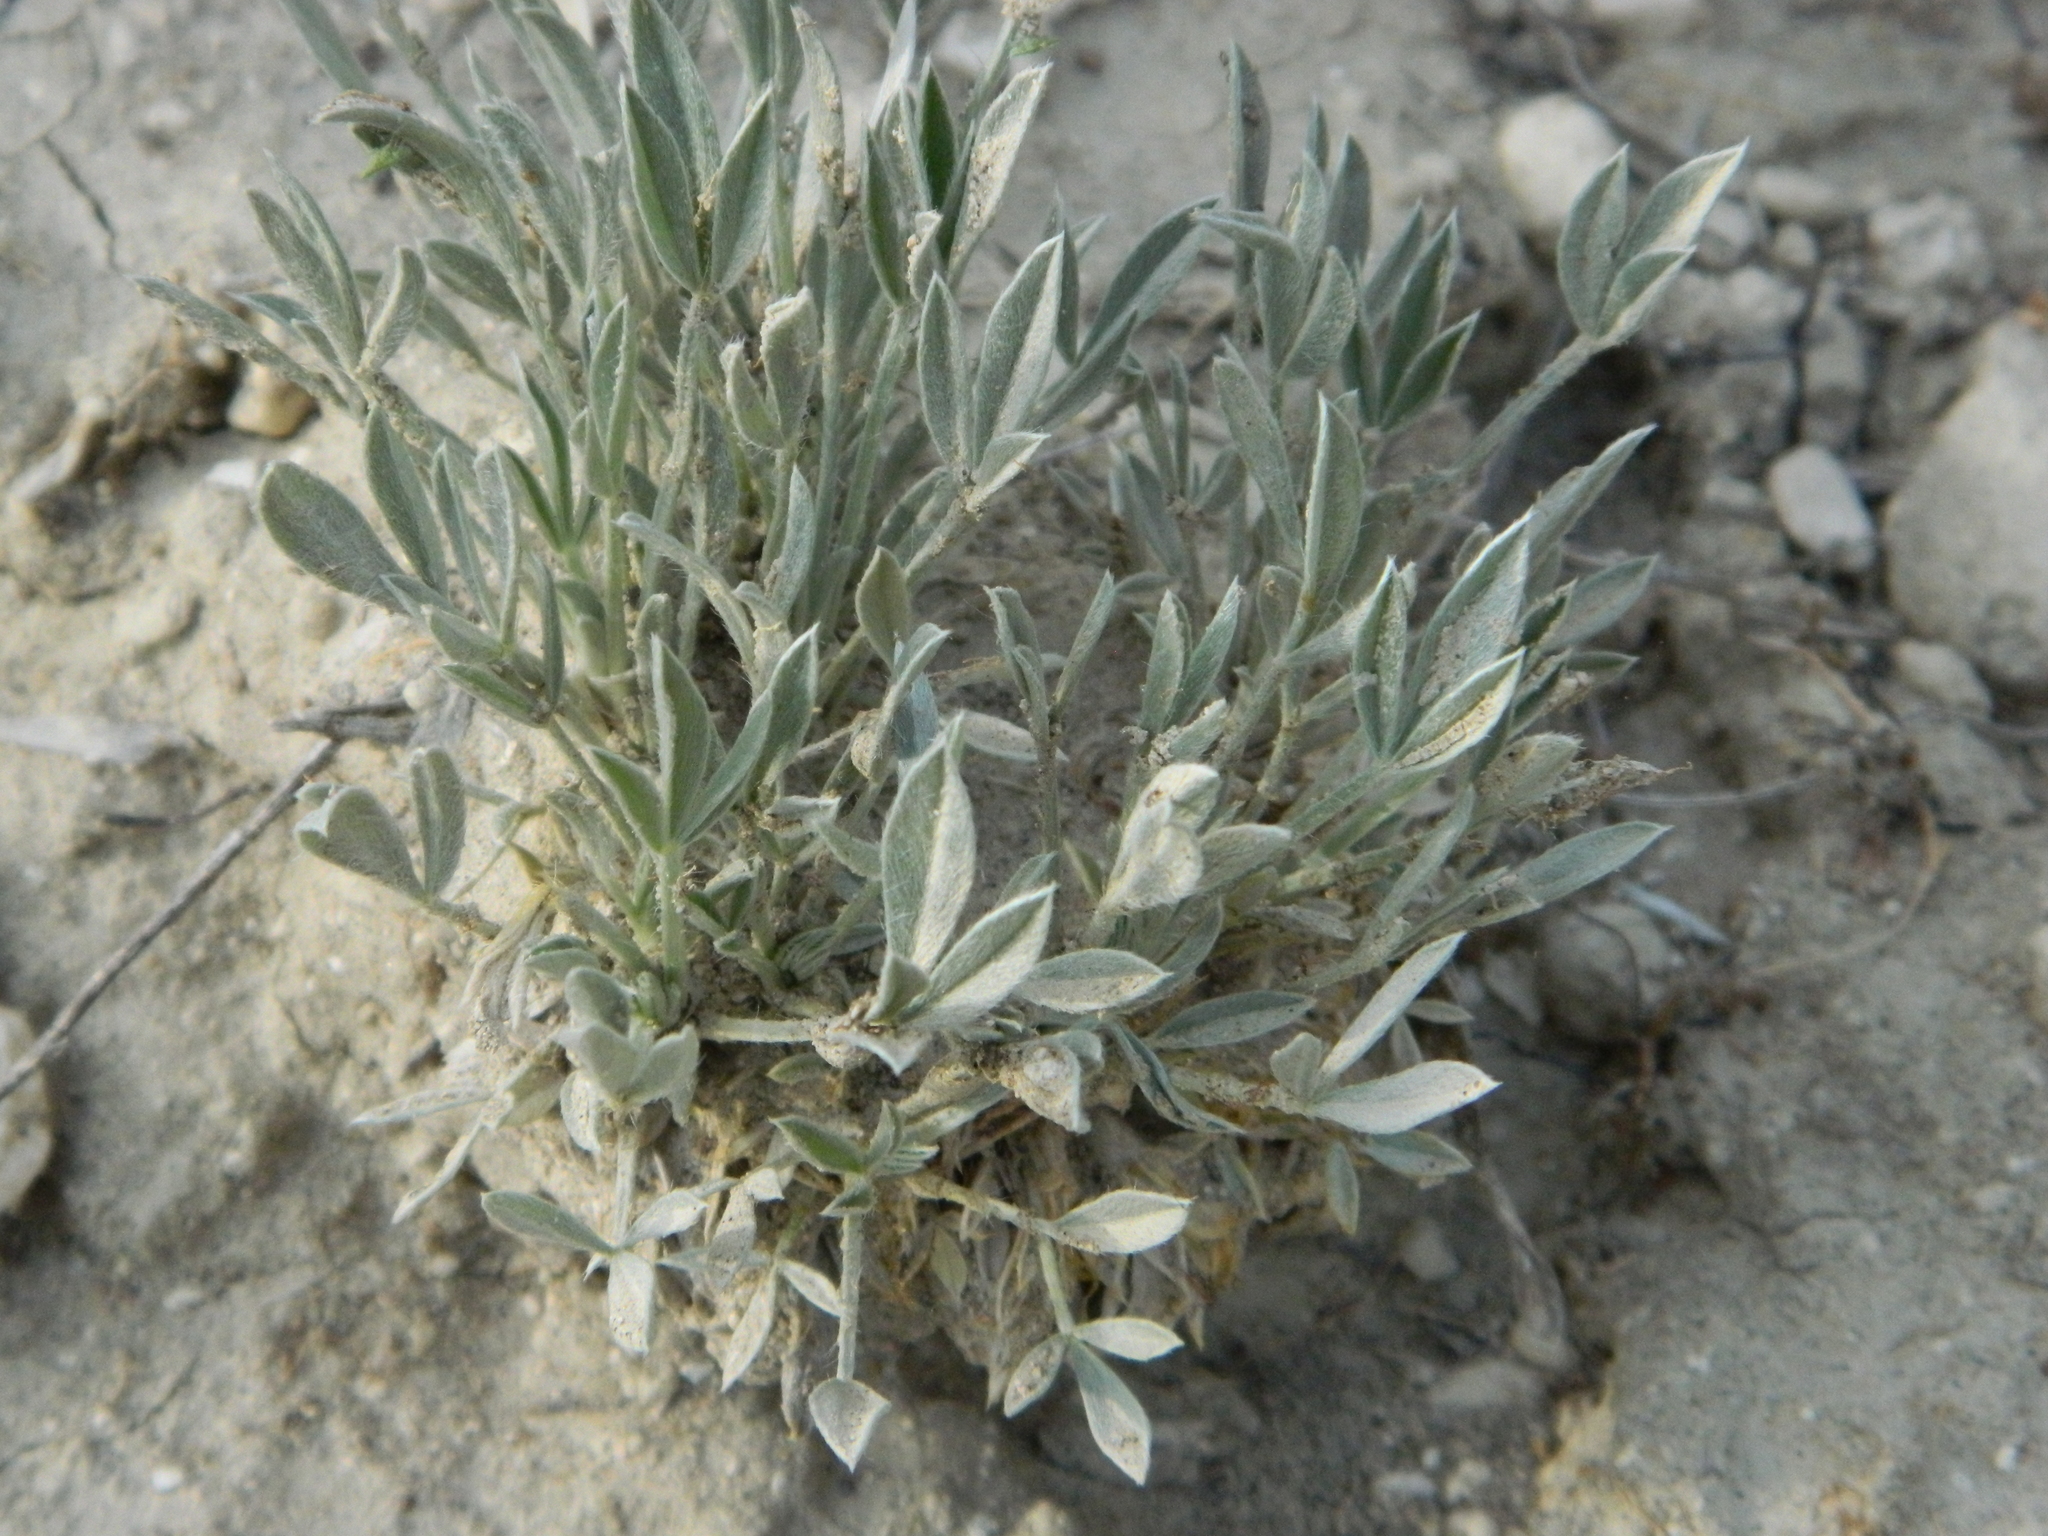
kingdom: Plantae
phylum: Tracheophyta
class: Magnoliopsida
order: Fabales
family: Fabaceae
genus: Astragalus
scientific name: Astragalus gilviflorus
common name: Cushion milk-vetch
